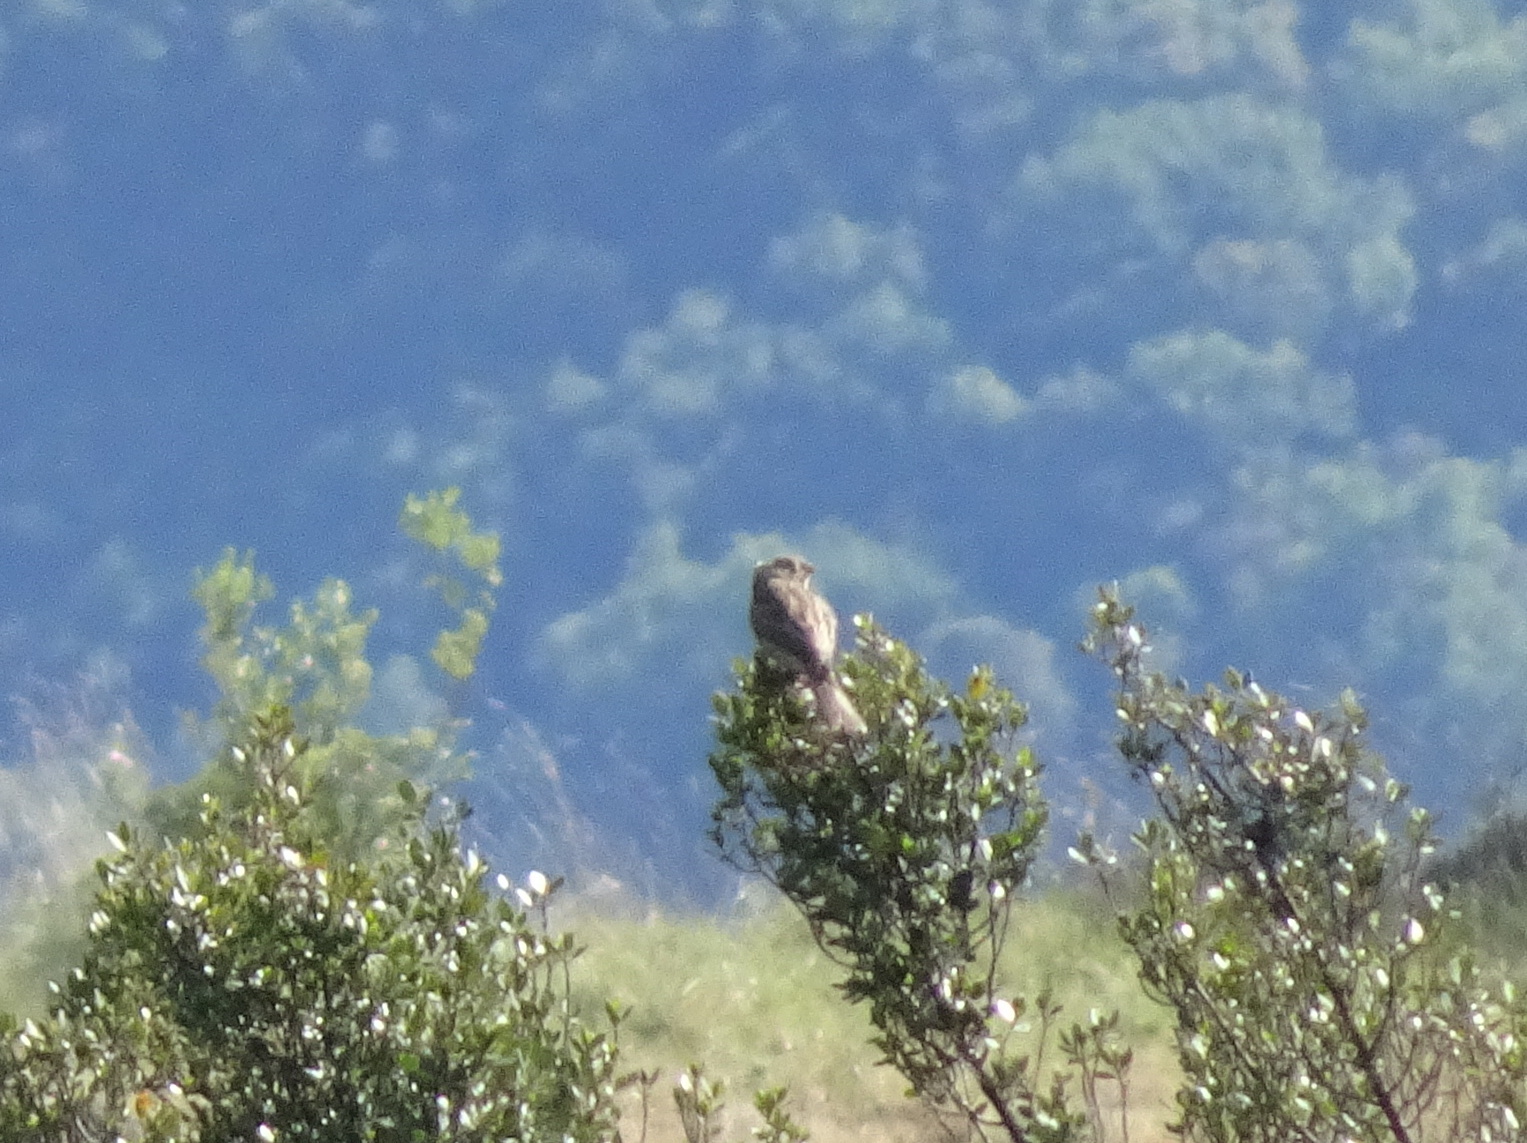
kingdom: Animalia
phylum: Chordata
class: Aves
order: Passeriformes
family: Emberizidae
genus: Emberiza
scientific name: Emberiza calandra
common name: Corn bunting
